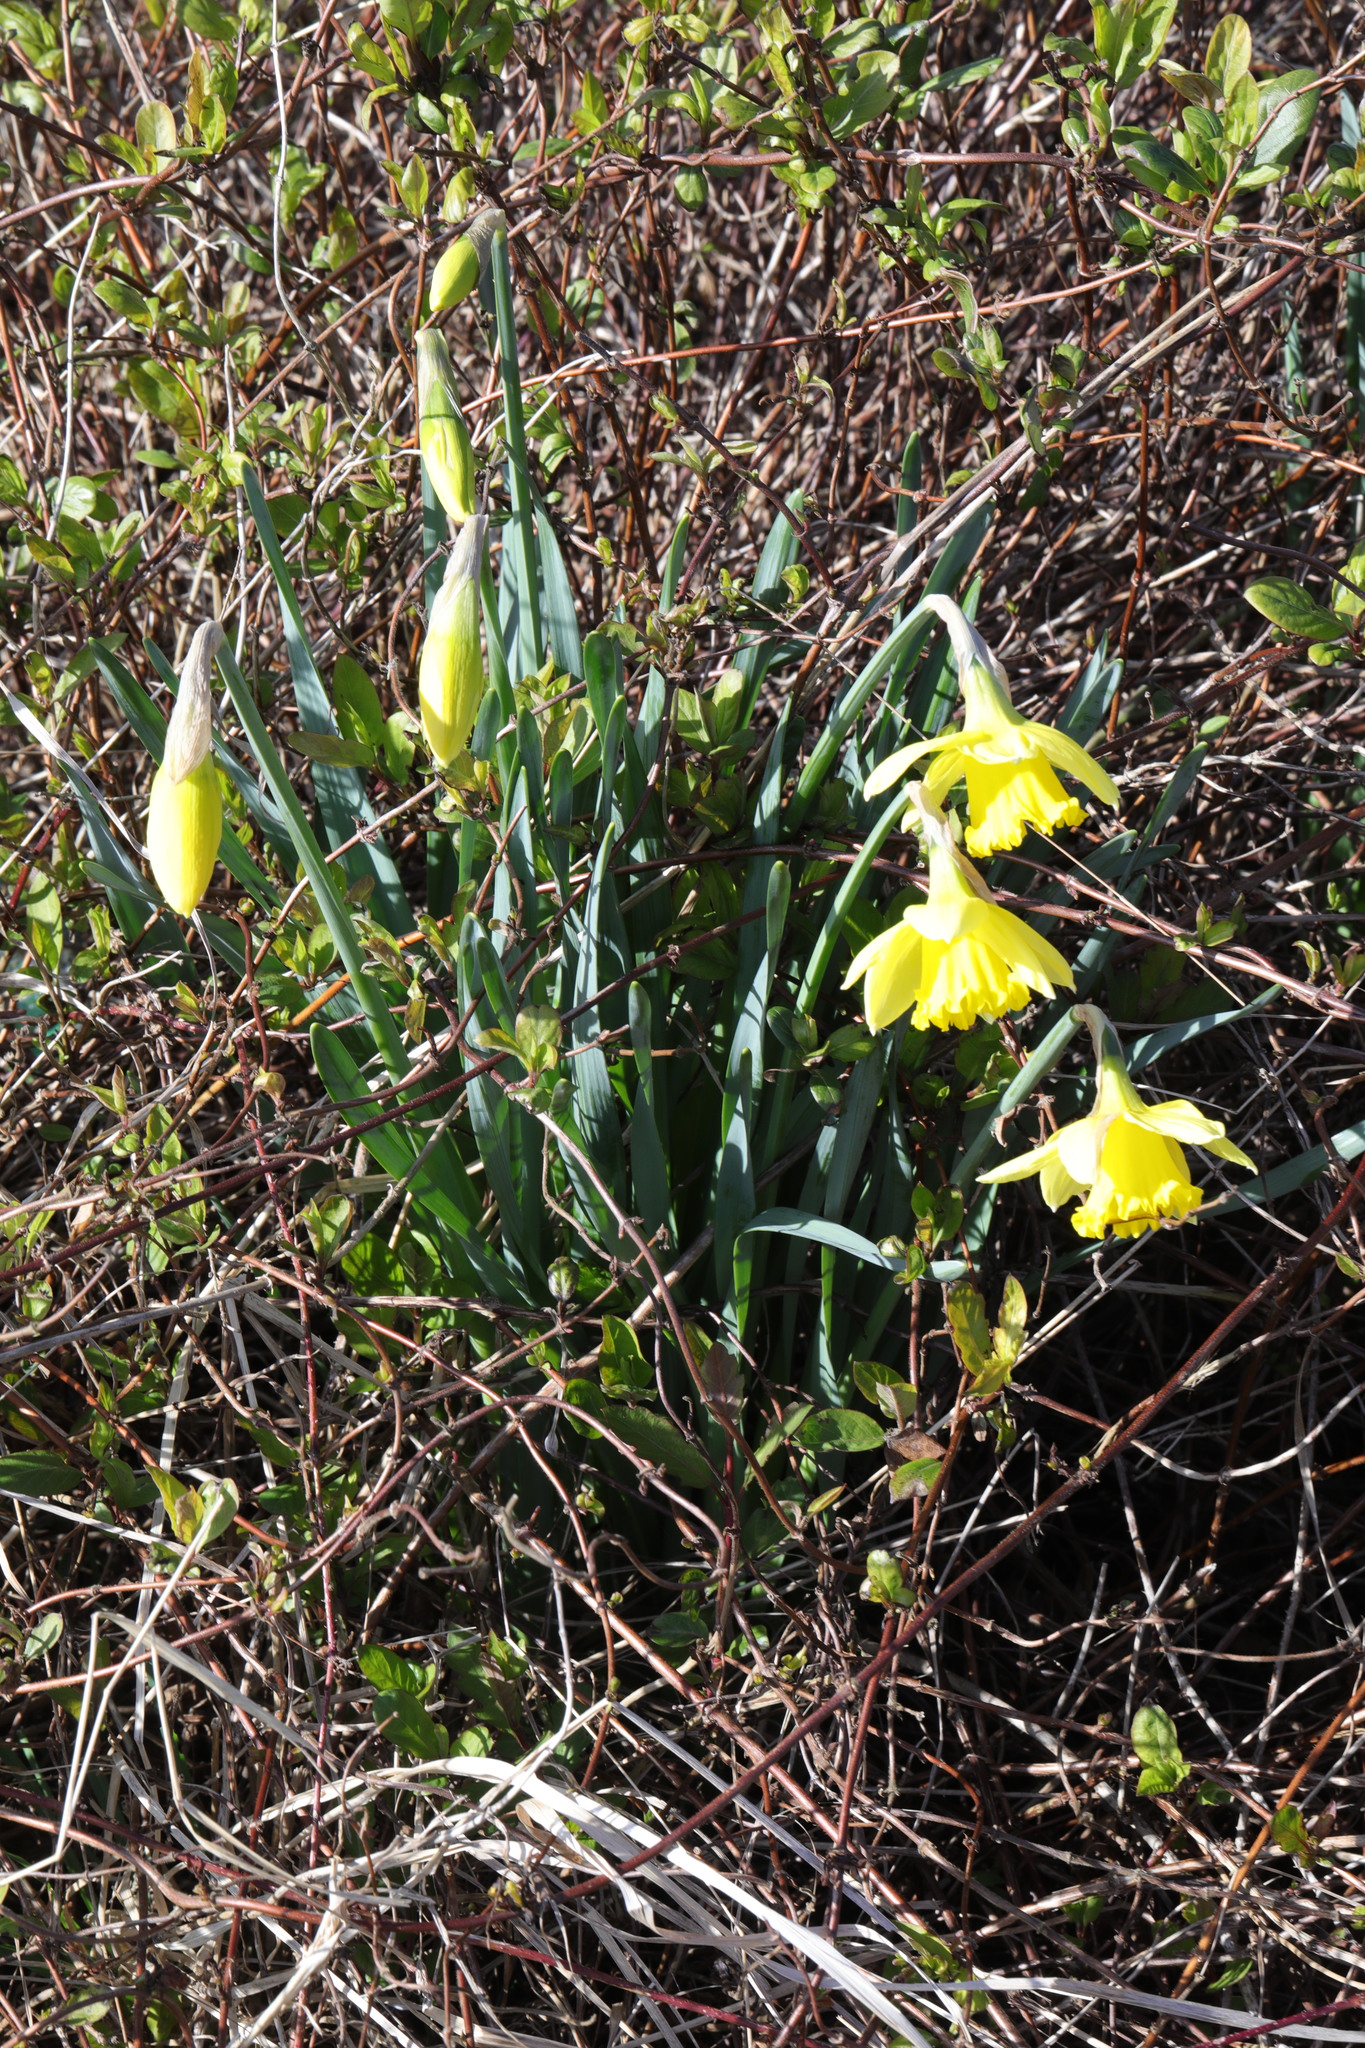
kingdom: Plantae
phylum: Tracheophyta
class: Liliopsida
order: Asparagales
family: Amaryllidaceae
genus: Narcissus
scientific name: Narcissus
